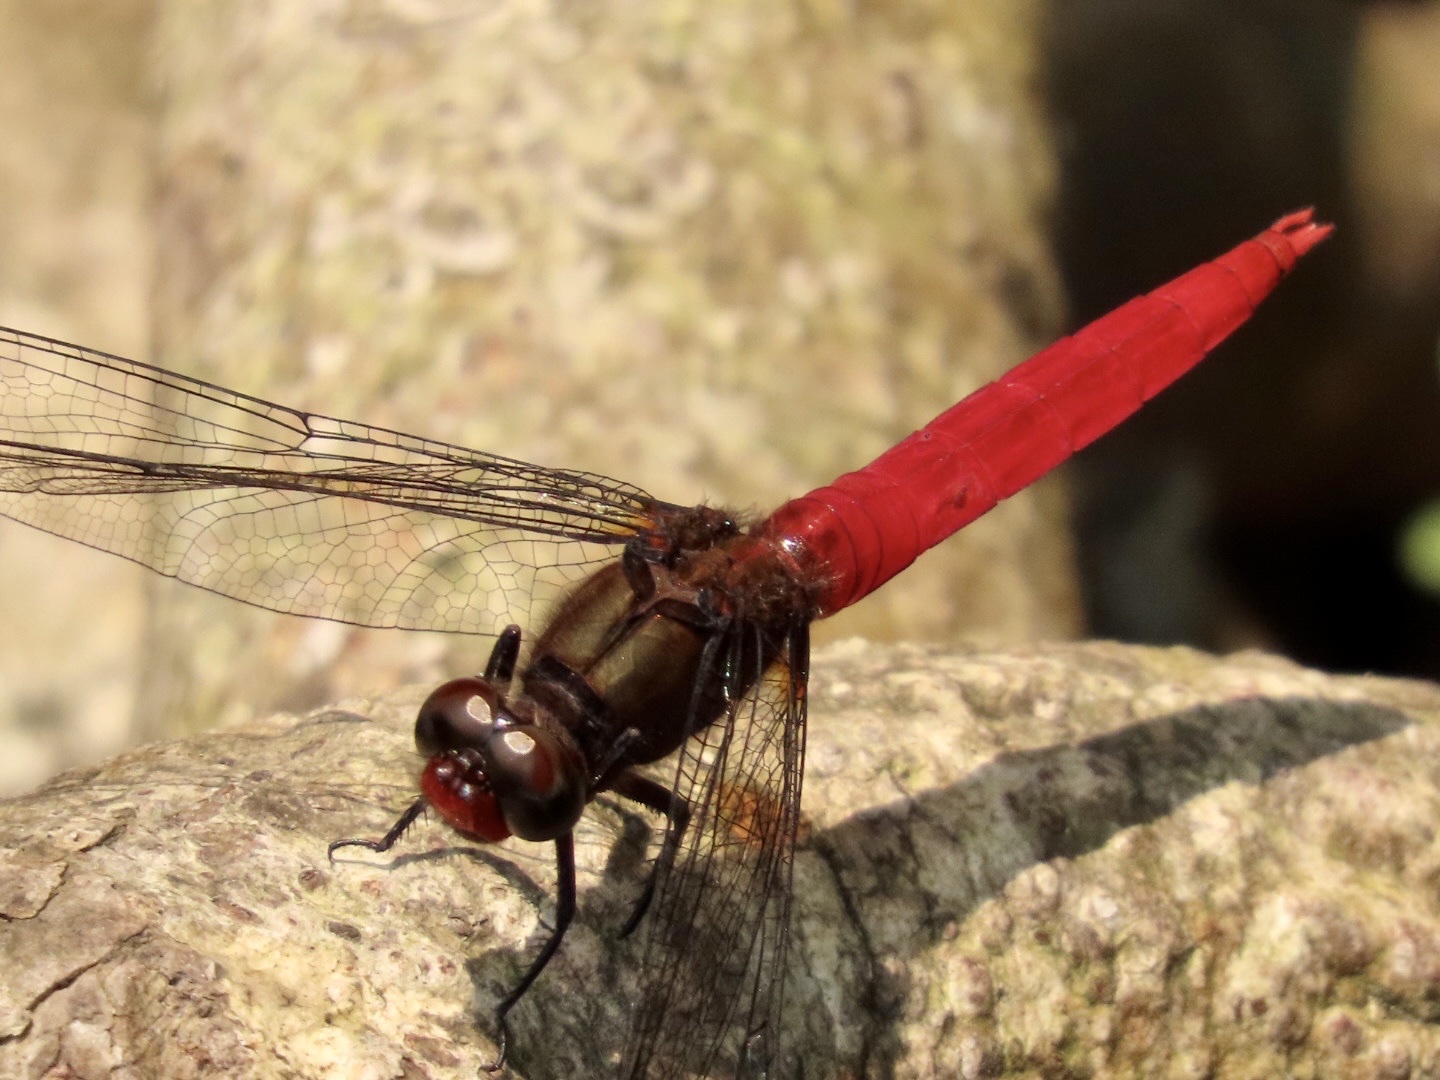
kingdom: Animalia
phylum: Arthropoda
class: Insecta
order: Odonata
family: Libellulidae
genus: Orthetrum
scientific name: Orthetrum chrysis
